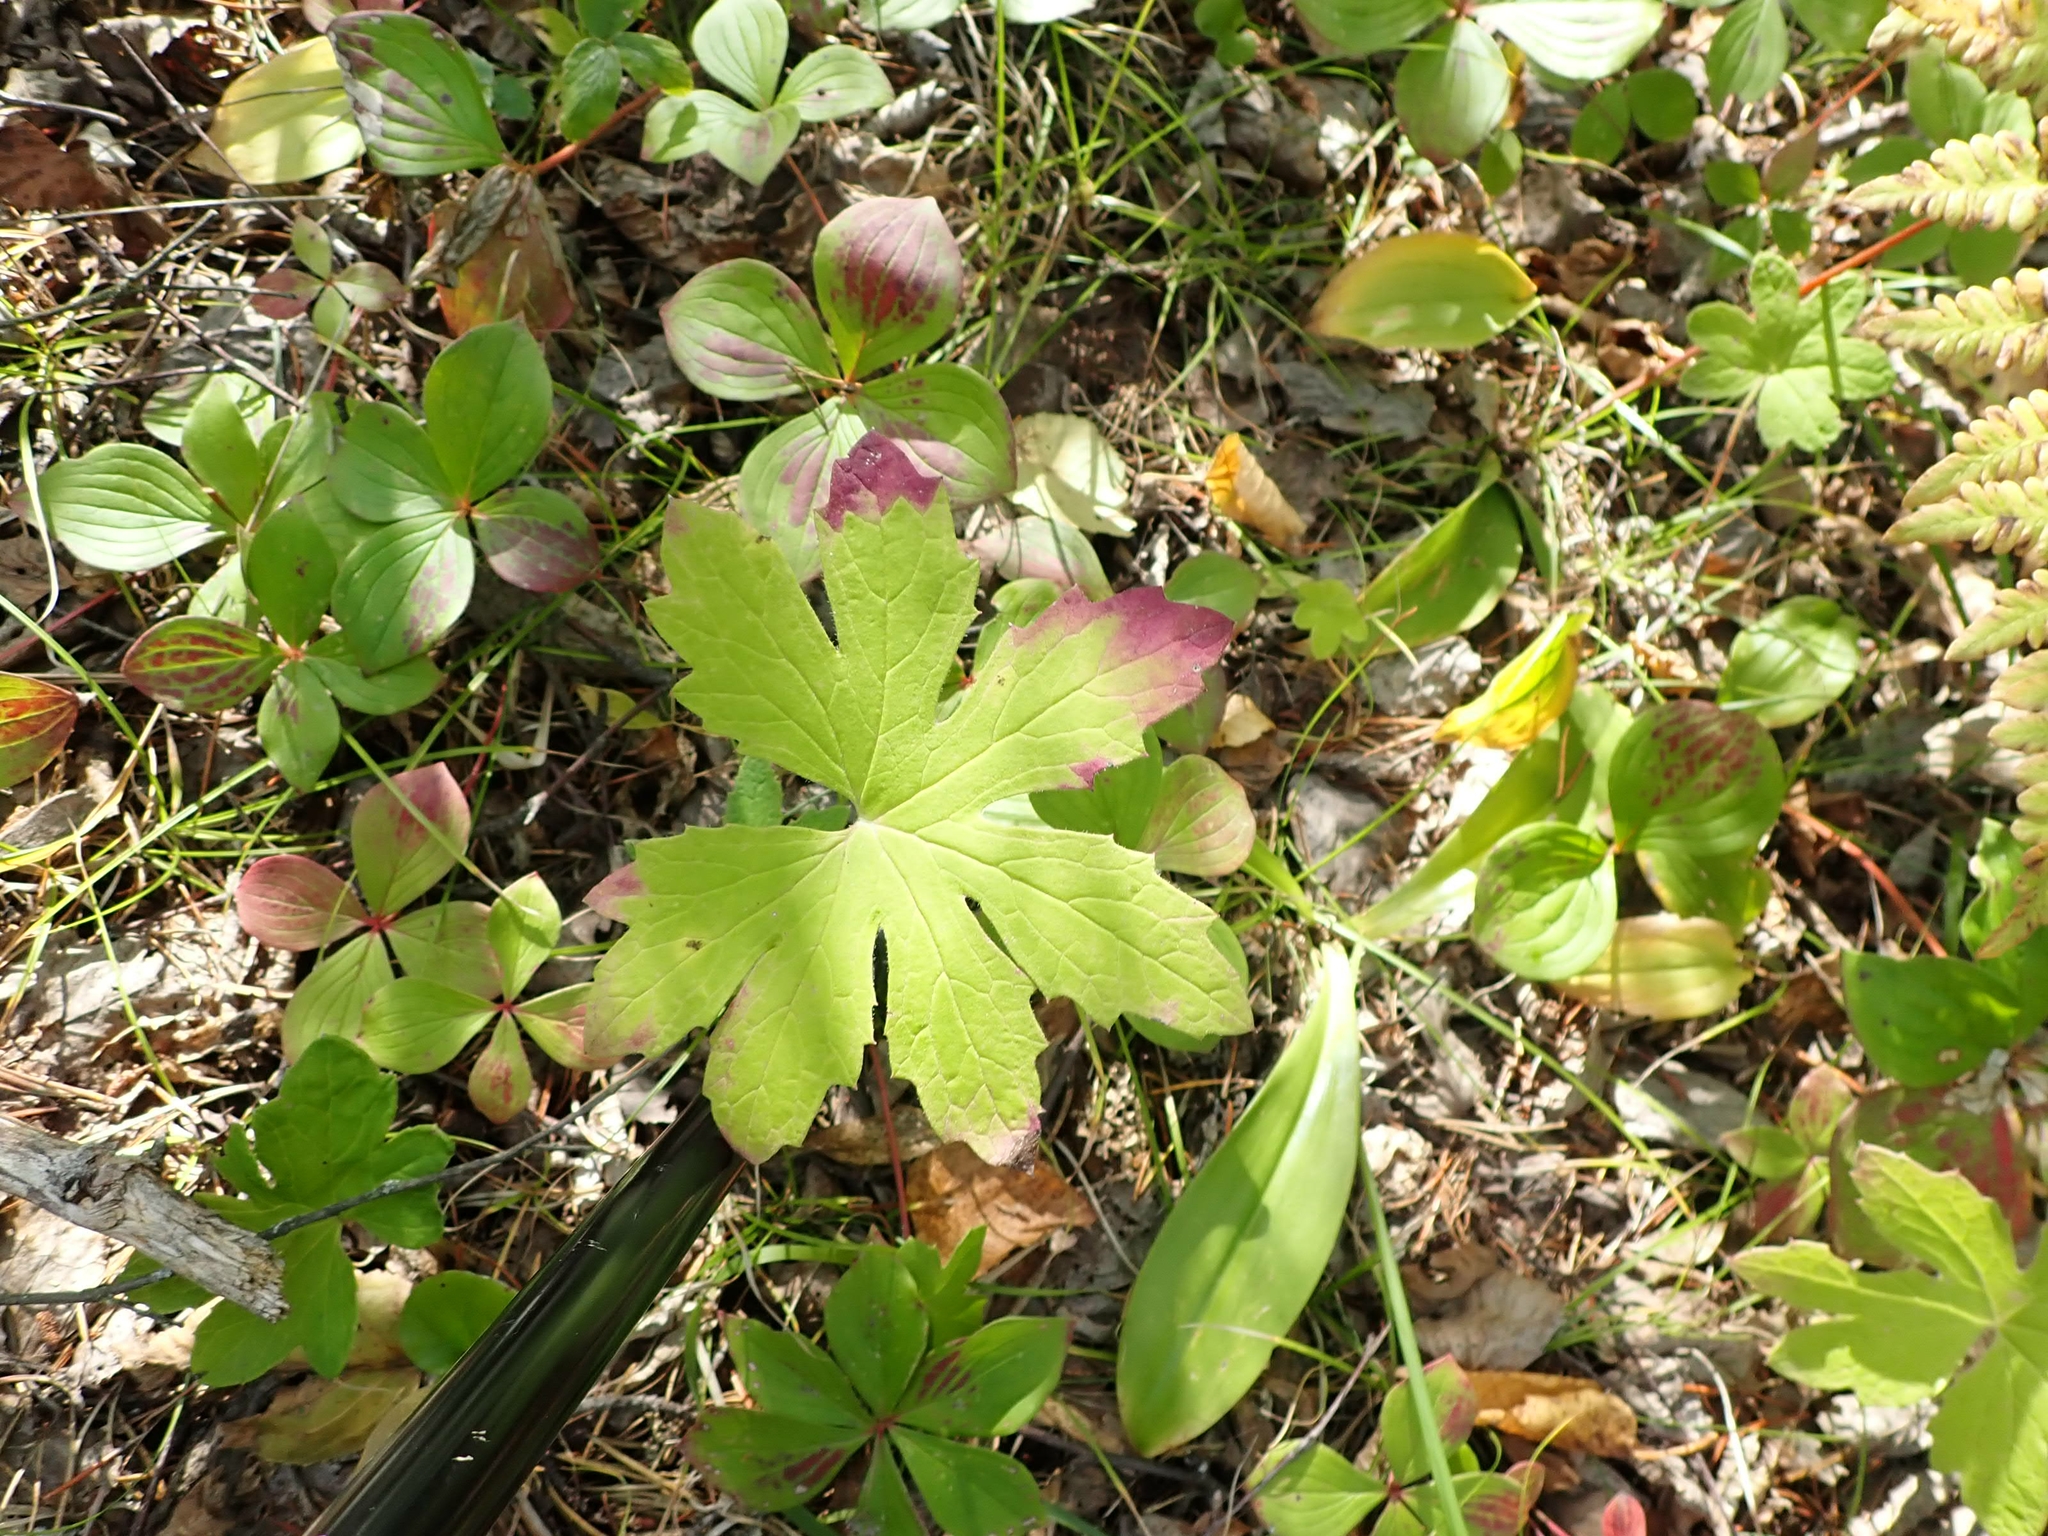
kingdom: Plantae
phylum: Tracheophyta
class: Magnoliopsida
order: Asterales
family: Asteraceae
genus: Petasites
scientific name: Petasites frigidus
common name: Arctic butterbur
